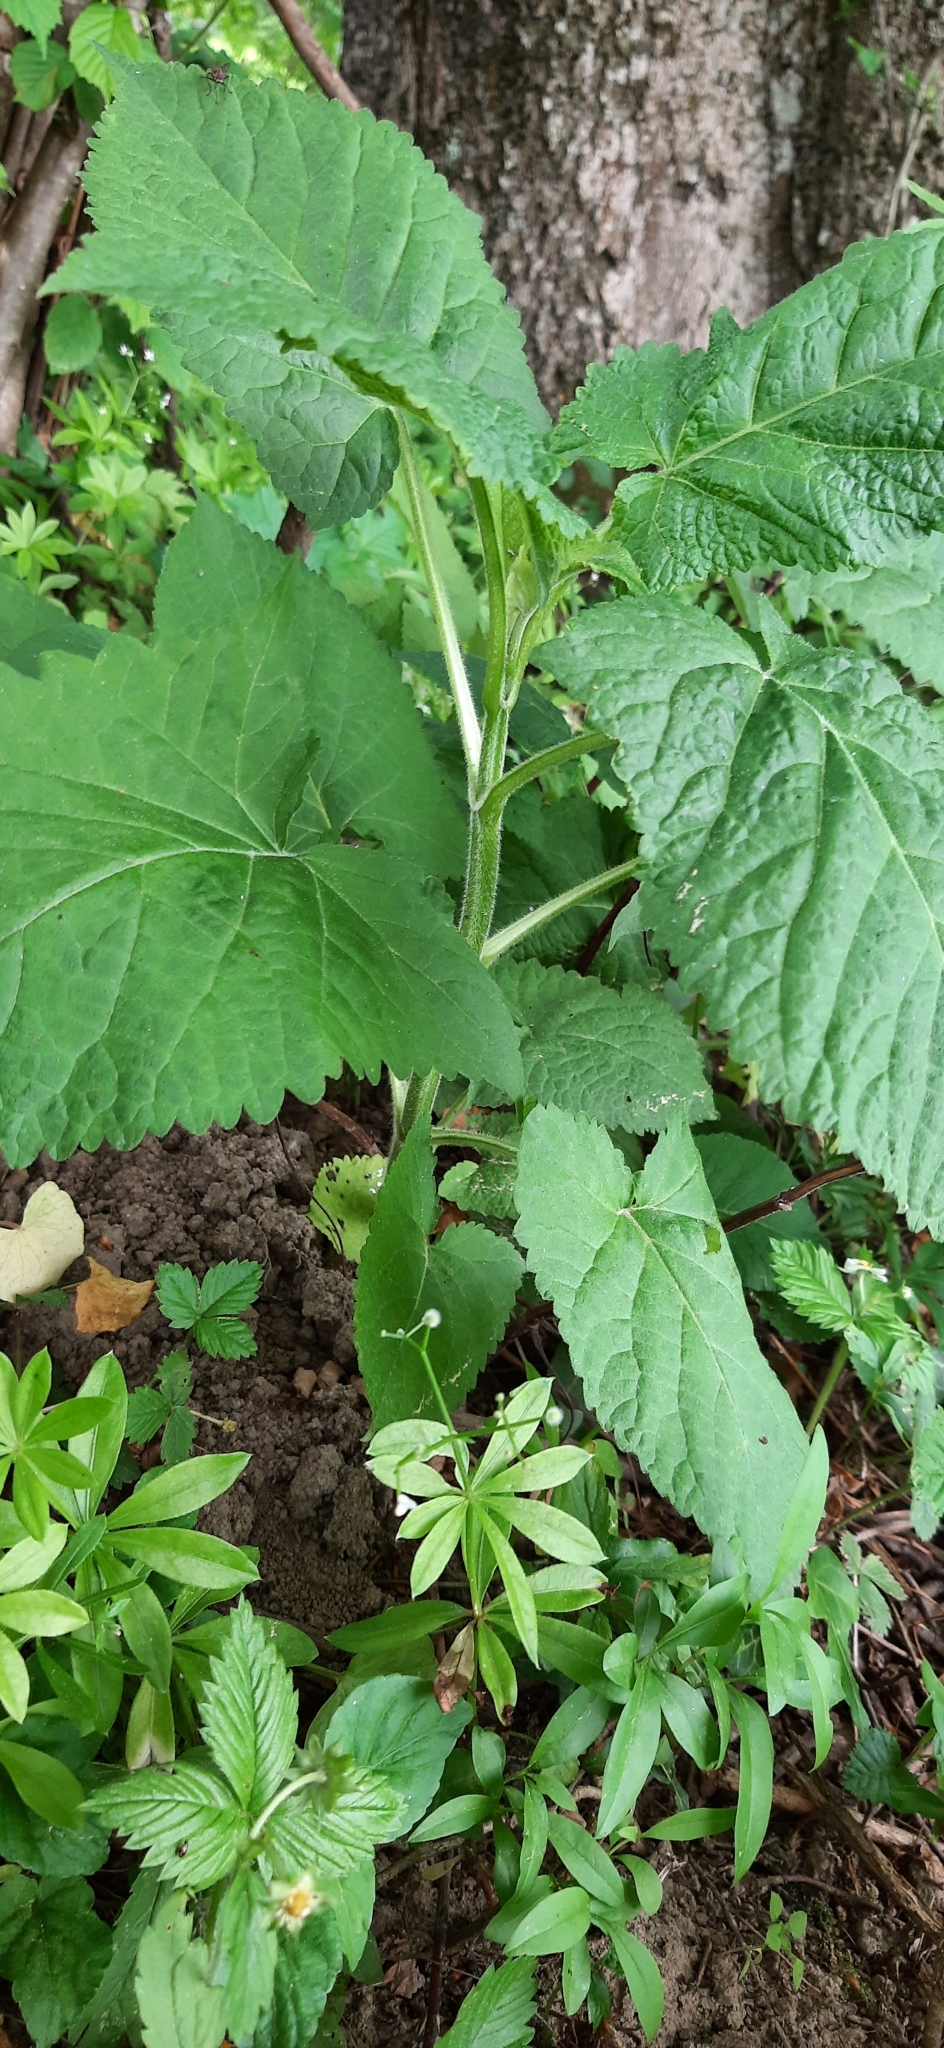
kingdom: Plantae
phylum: Tracheophyta
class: Magnoliopsida
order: Lamiales
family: Lamiaceae
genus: Salvia
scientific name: Salvia glutinosa
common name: Sticky clary
